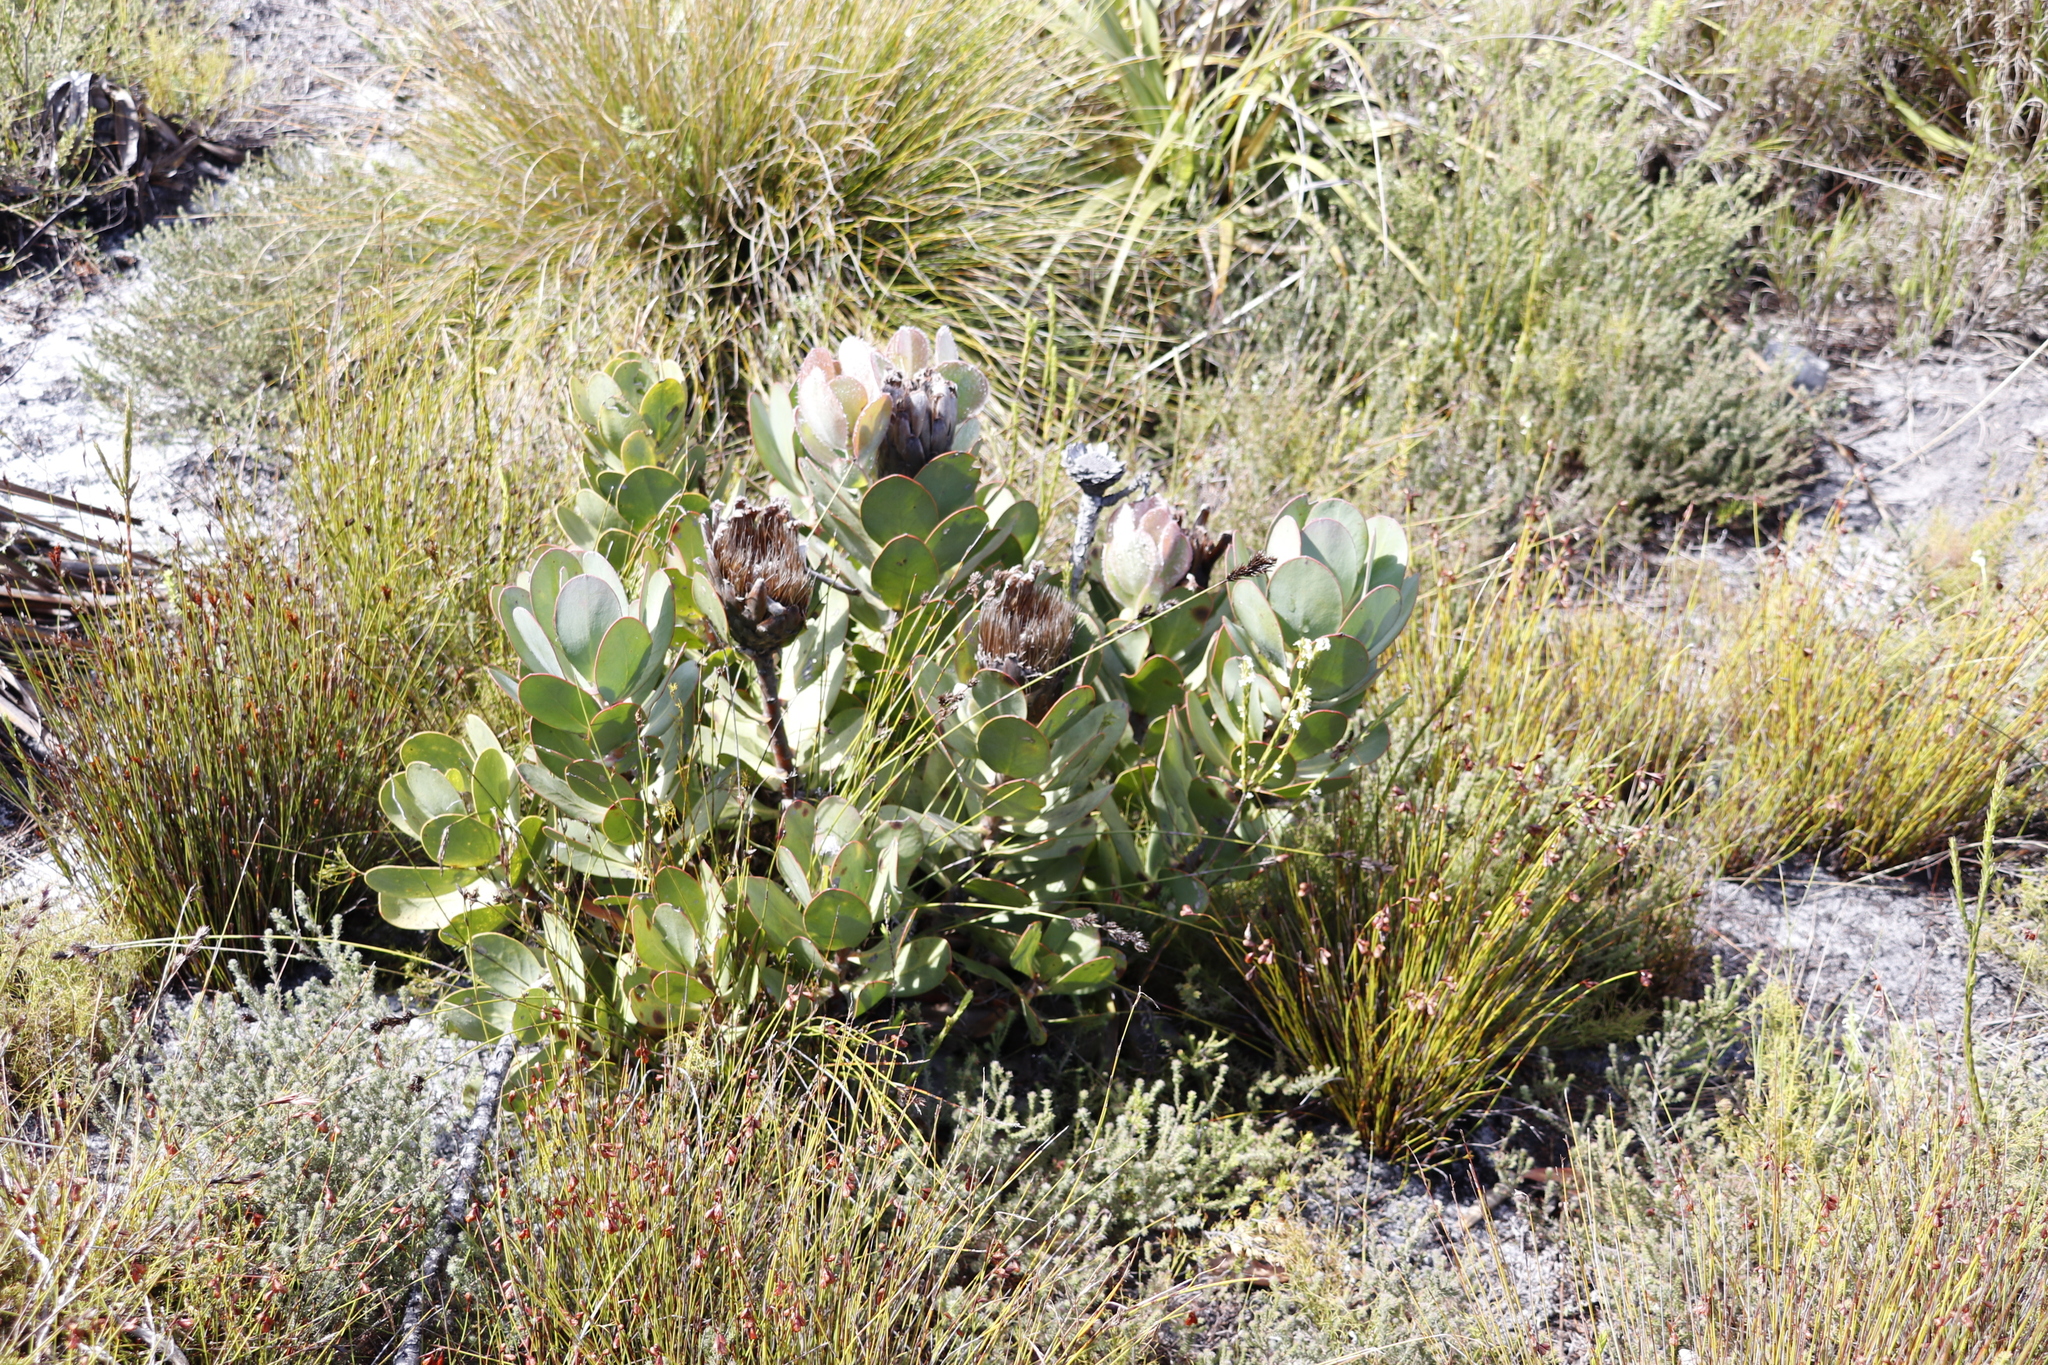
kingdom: Plantae
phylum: Tracheophyta
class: Magnoliopsida
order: Proteales
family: Proteaceae
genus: Protea
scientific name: Protea speciosa
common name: Brown-beard sugarbush
